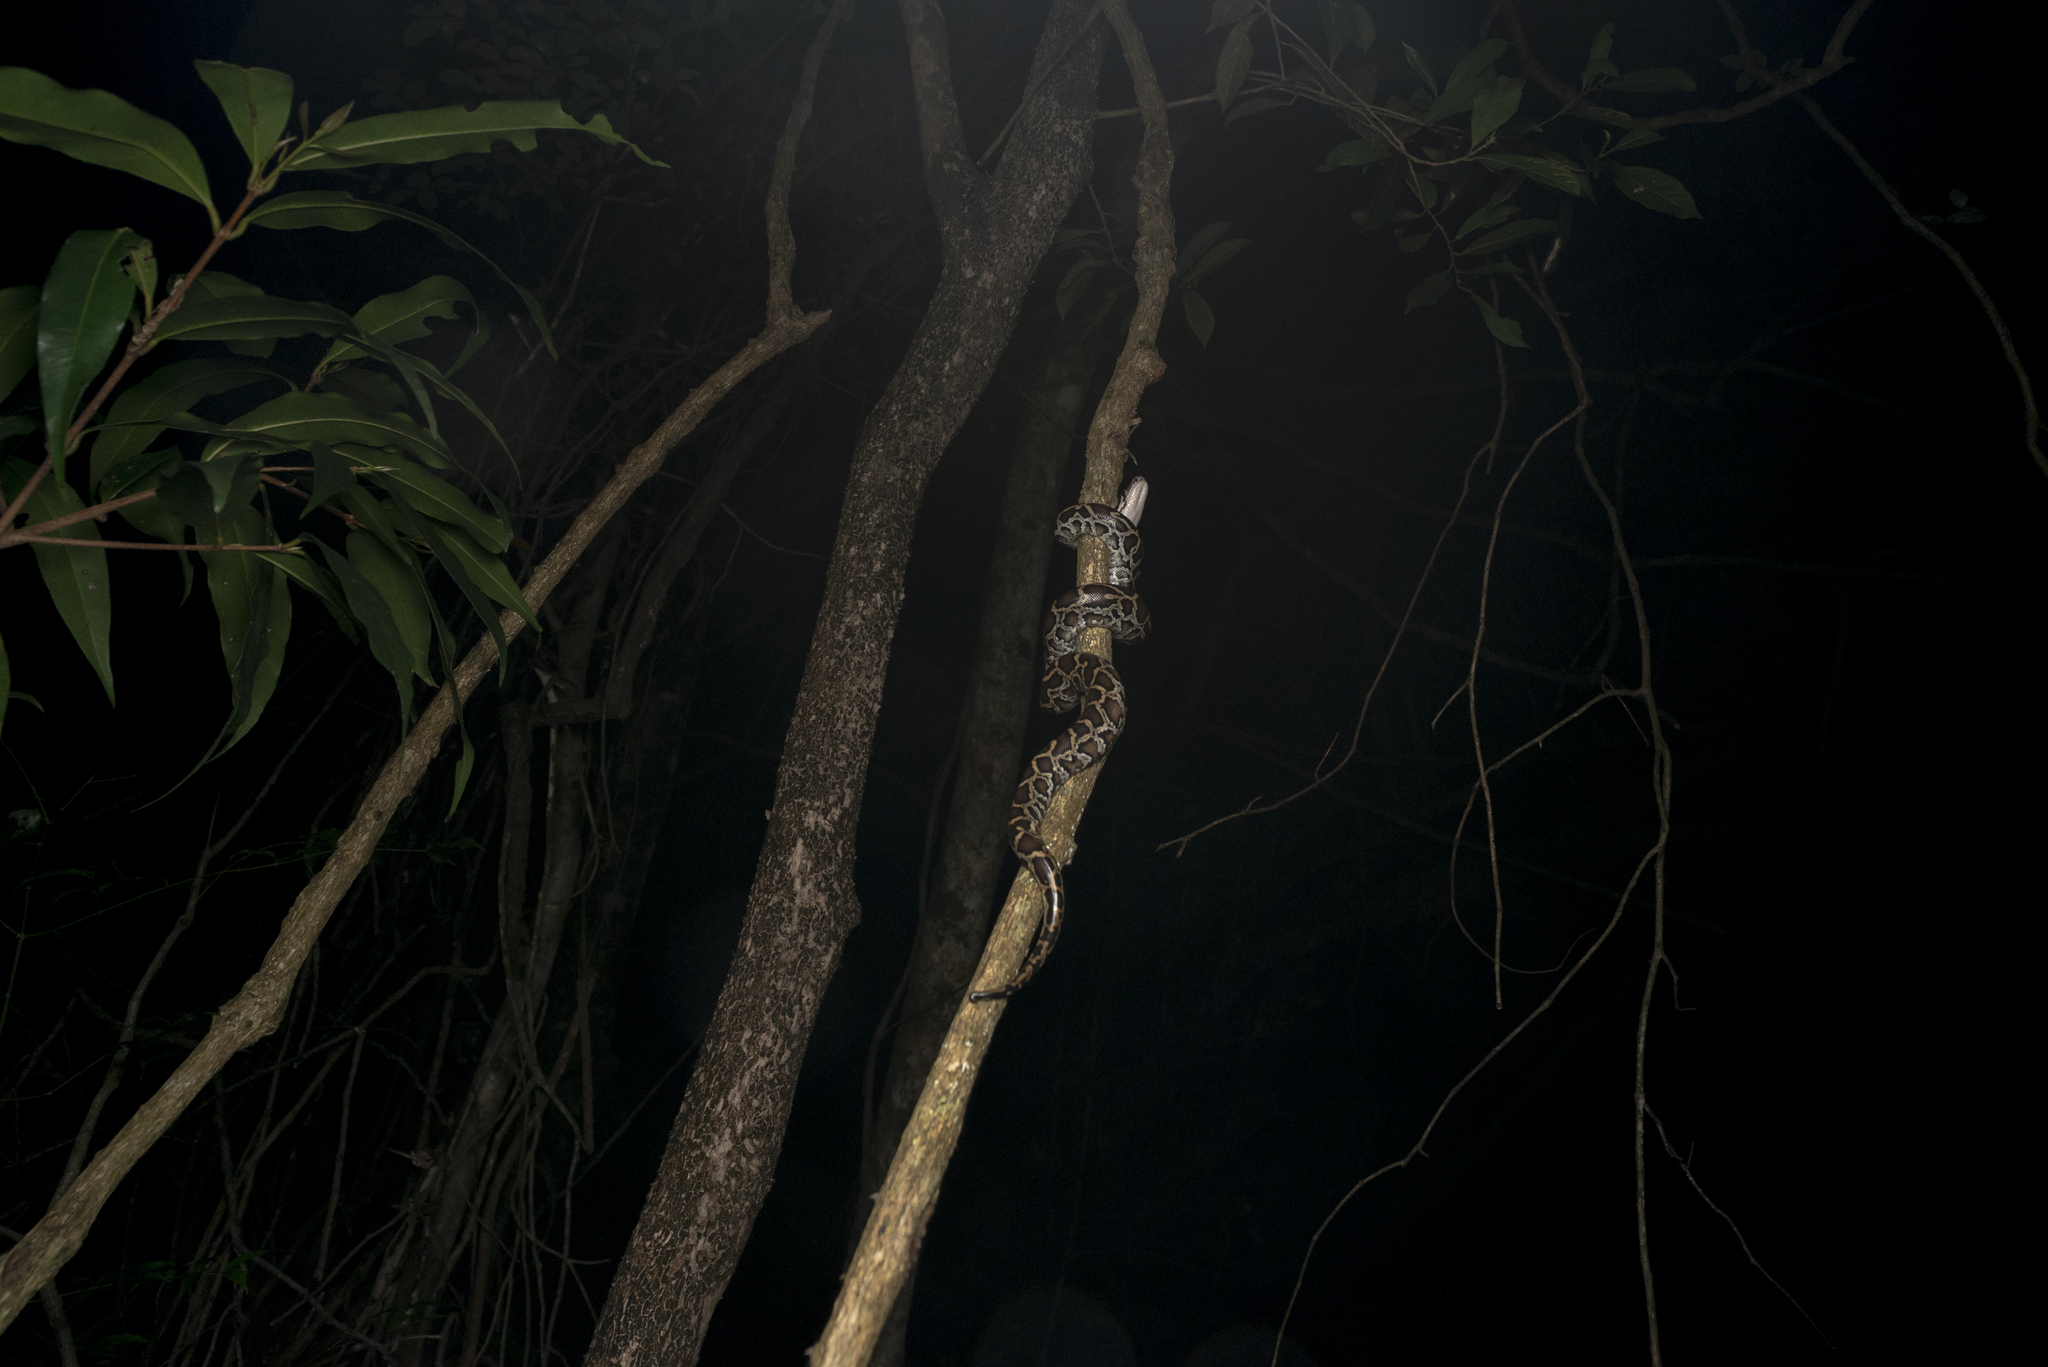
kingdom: Animalia
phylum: Chordata
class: Squamata
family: Pythonidae
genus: Python
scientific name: Python bivittatus
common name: Burmese python
